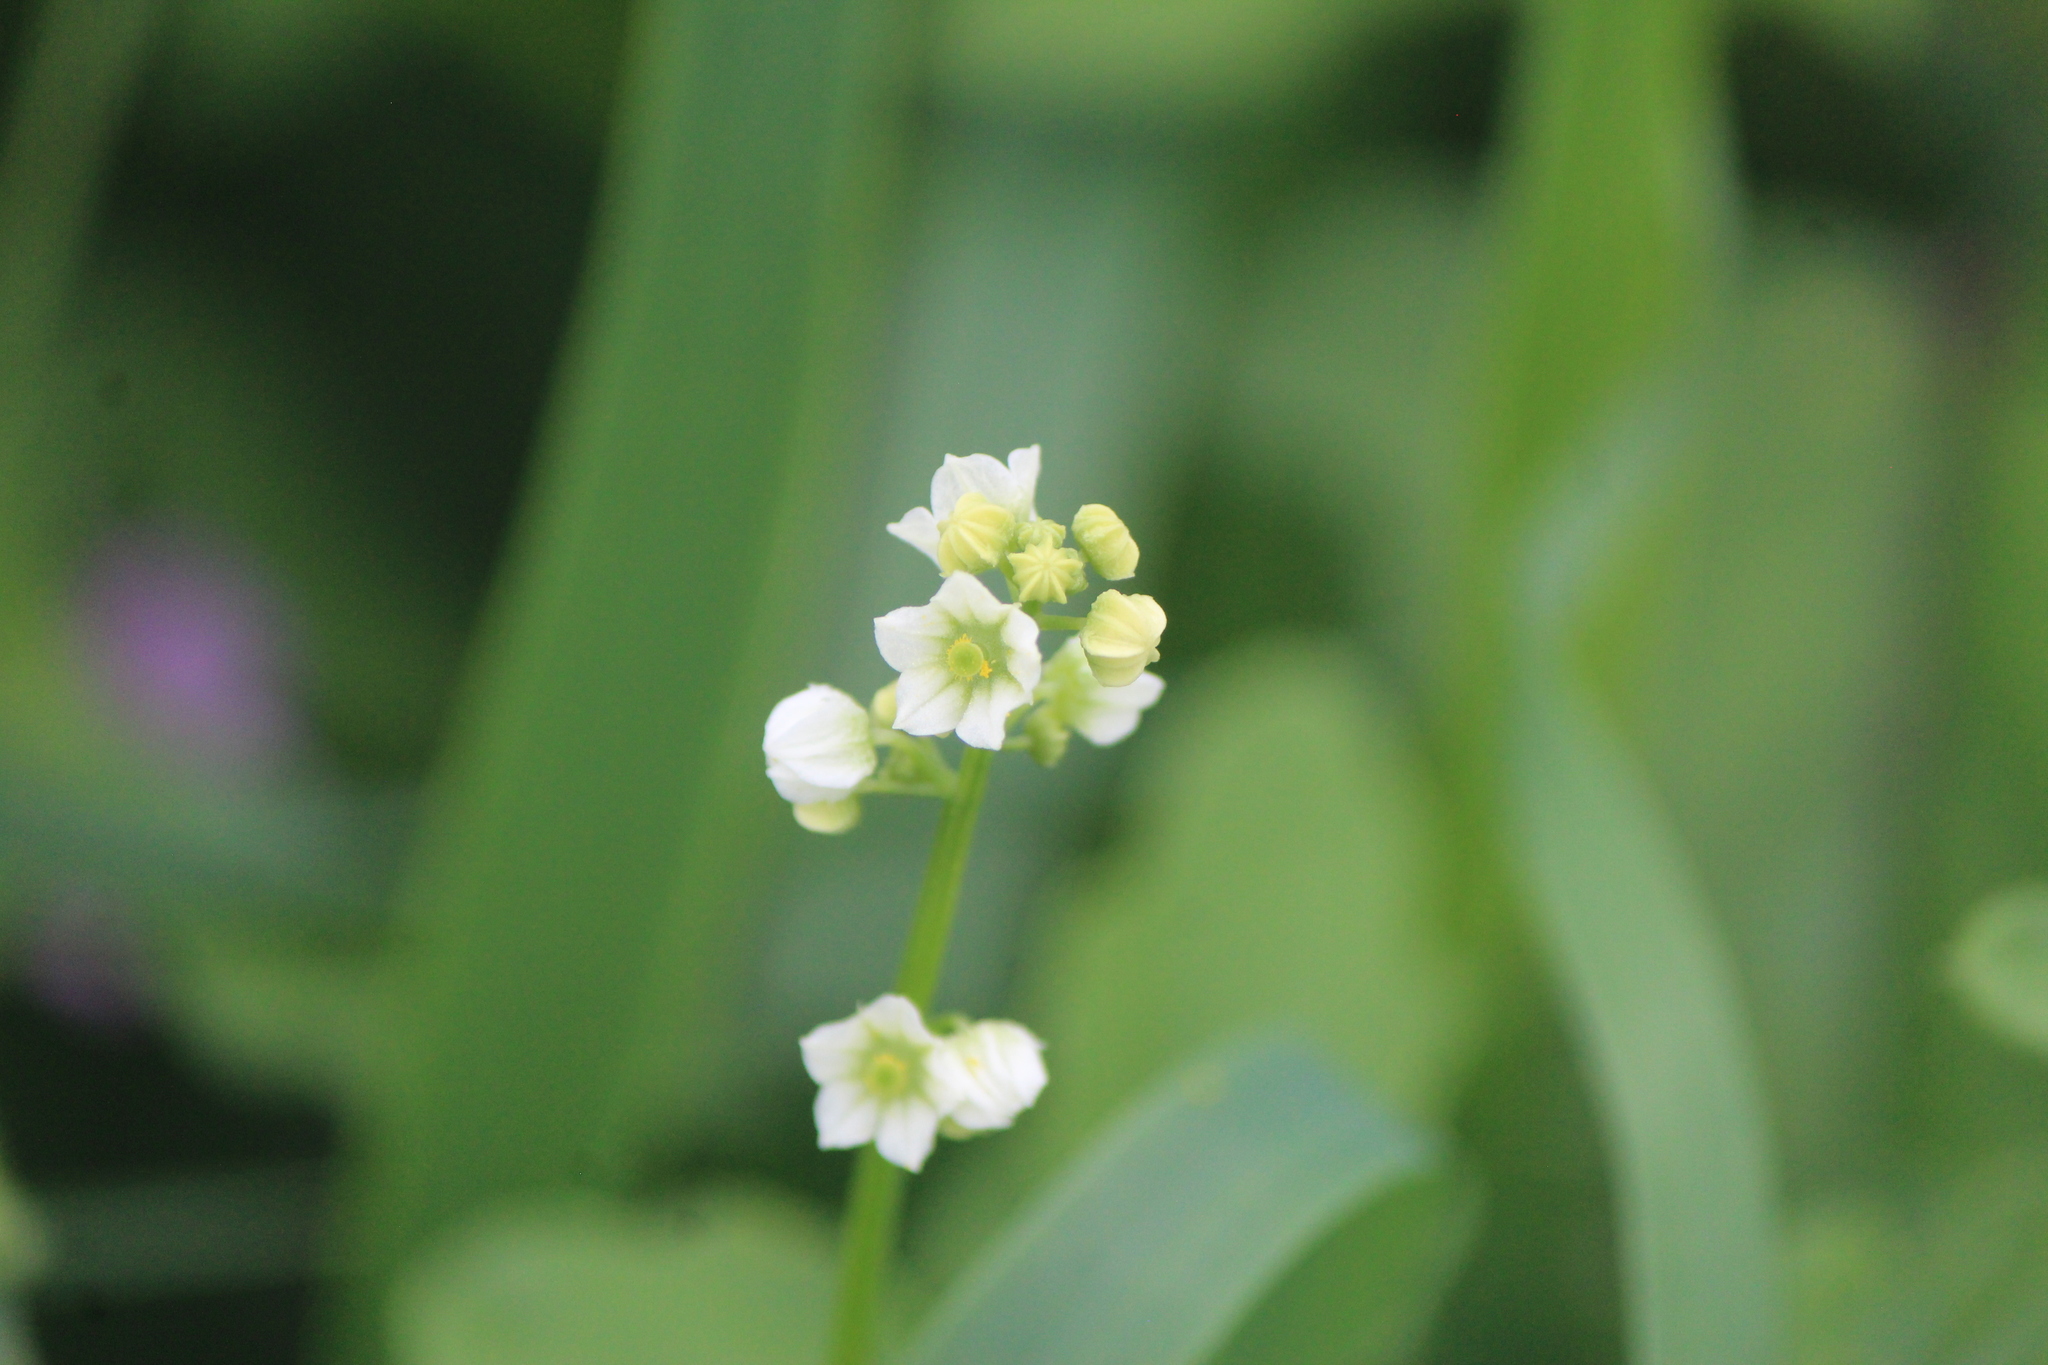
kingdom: Plantae
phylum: Tracheophyta
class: Magnoliopsida
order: Cucurbitales
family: Cucurbitaceae
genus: Cyclanthera
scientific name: Cyclanthera gracillima
